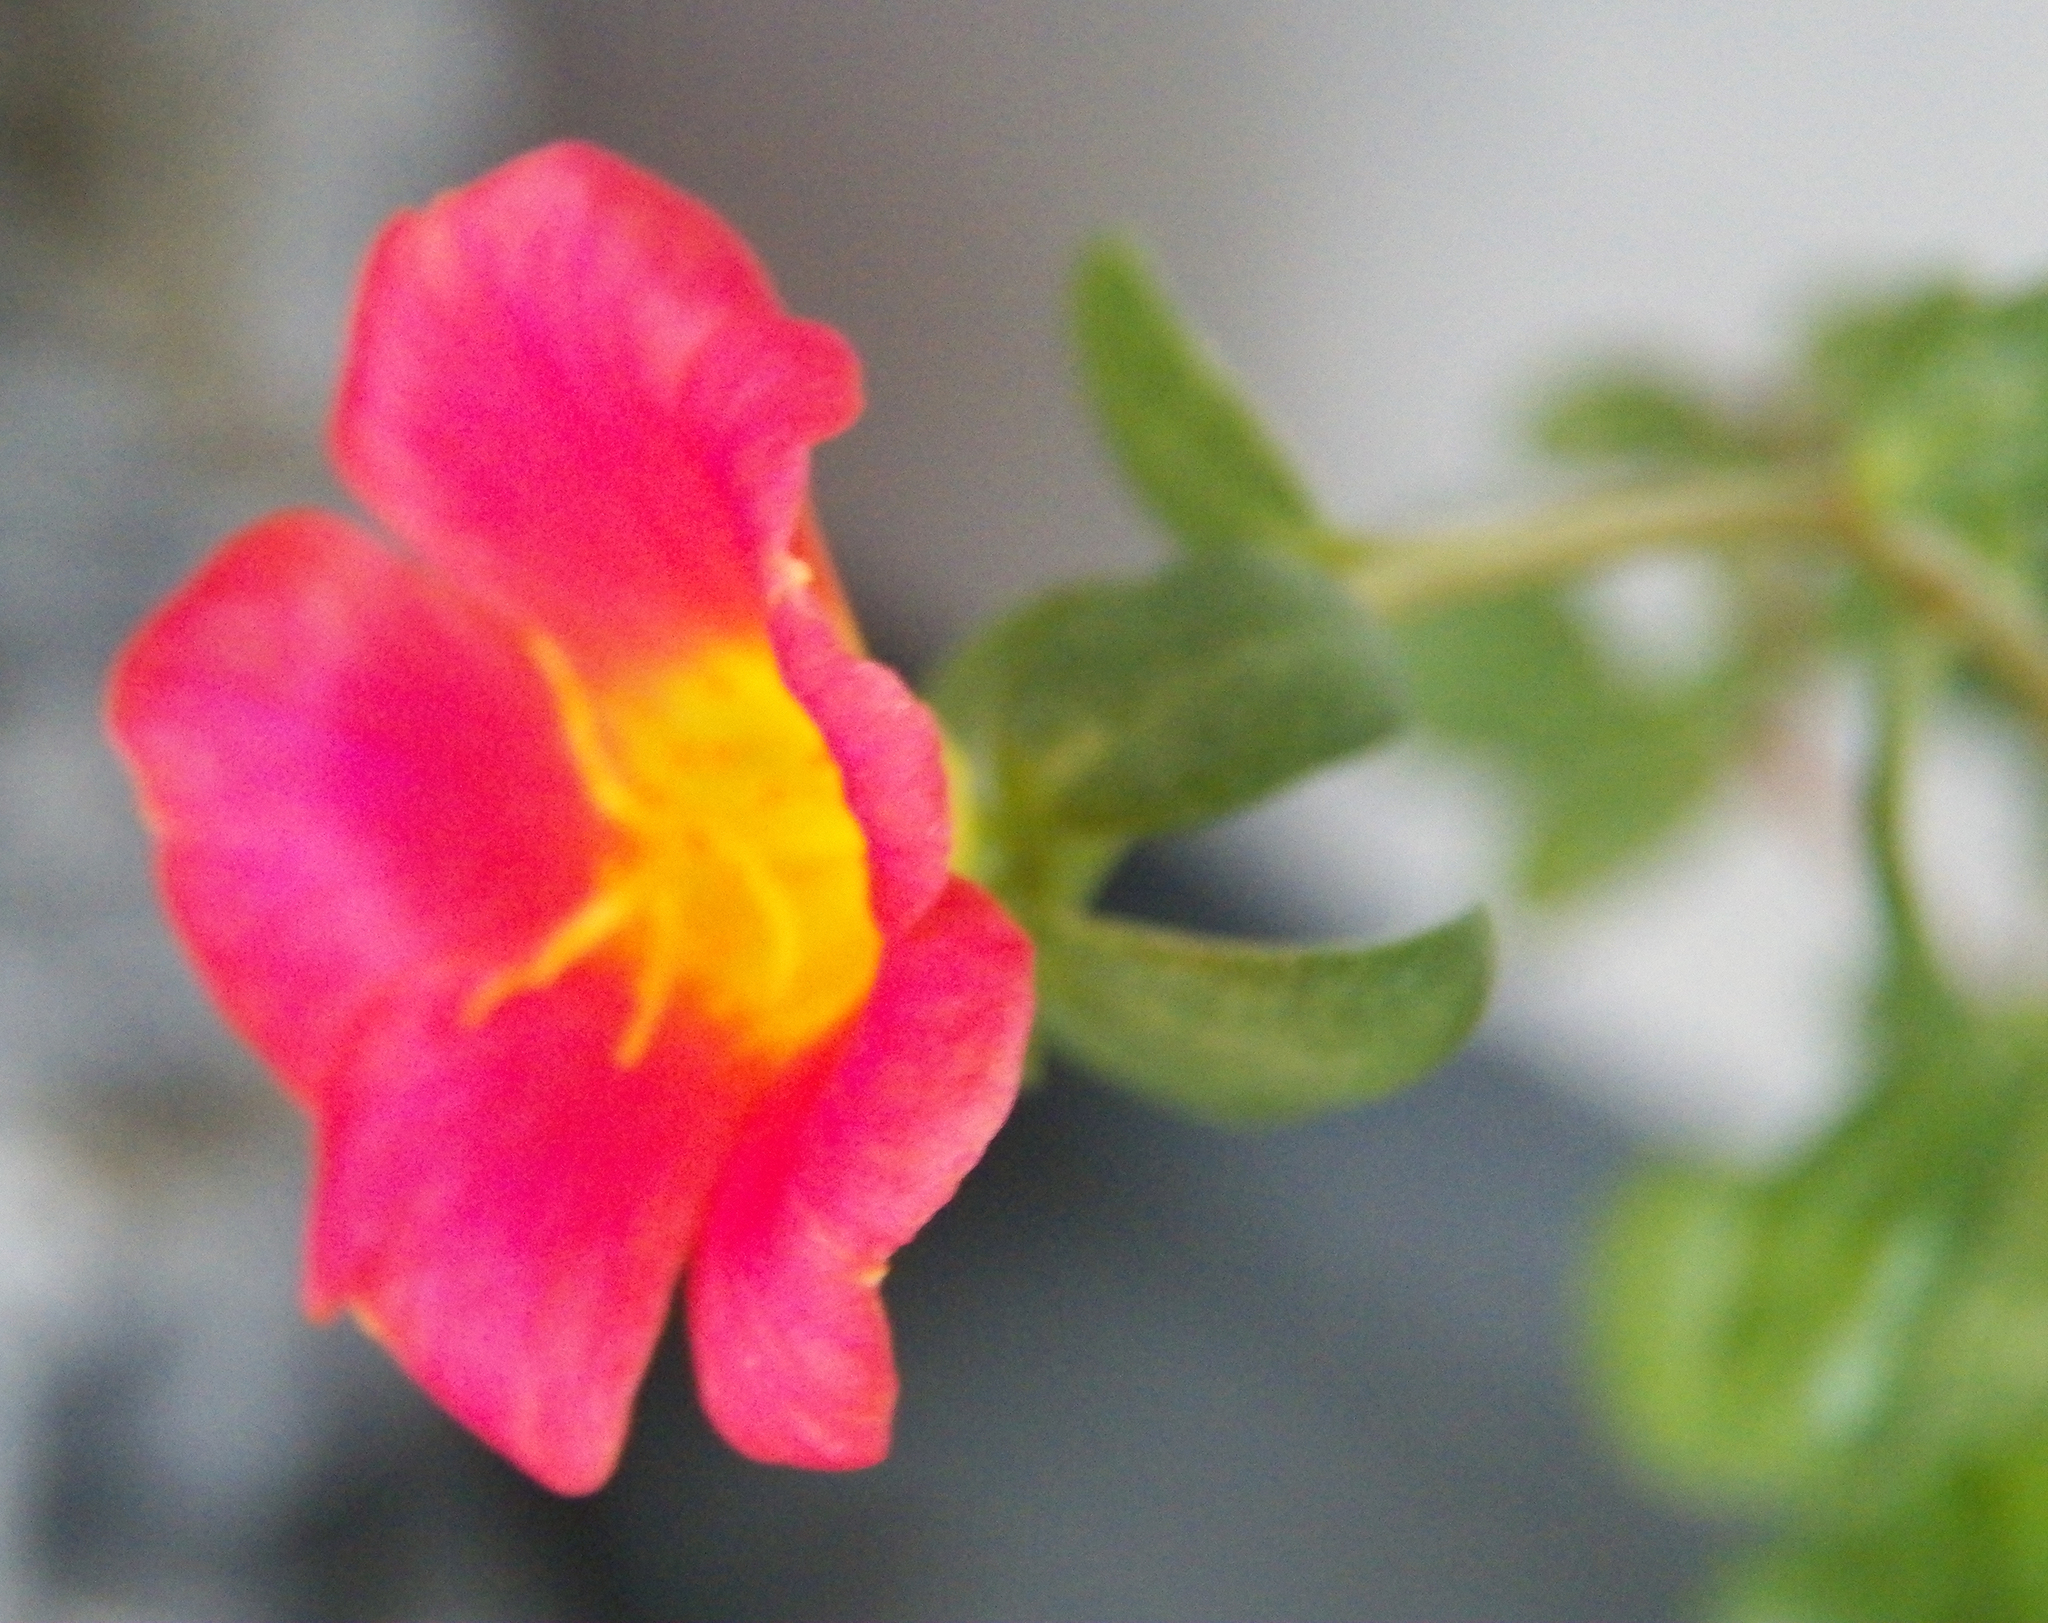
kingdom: Plantae
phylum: Tracheophyta
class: Magnoliopsida
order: Caryophyllales
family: Portulacaceae
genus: Portulaca
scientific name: Portulaca umbraticola
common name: Wingpod purslane
